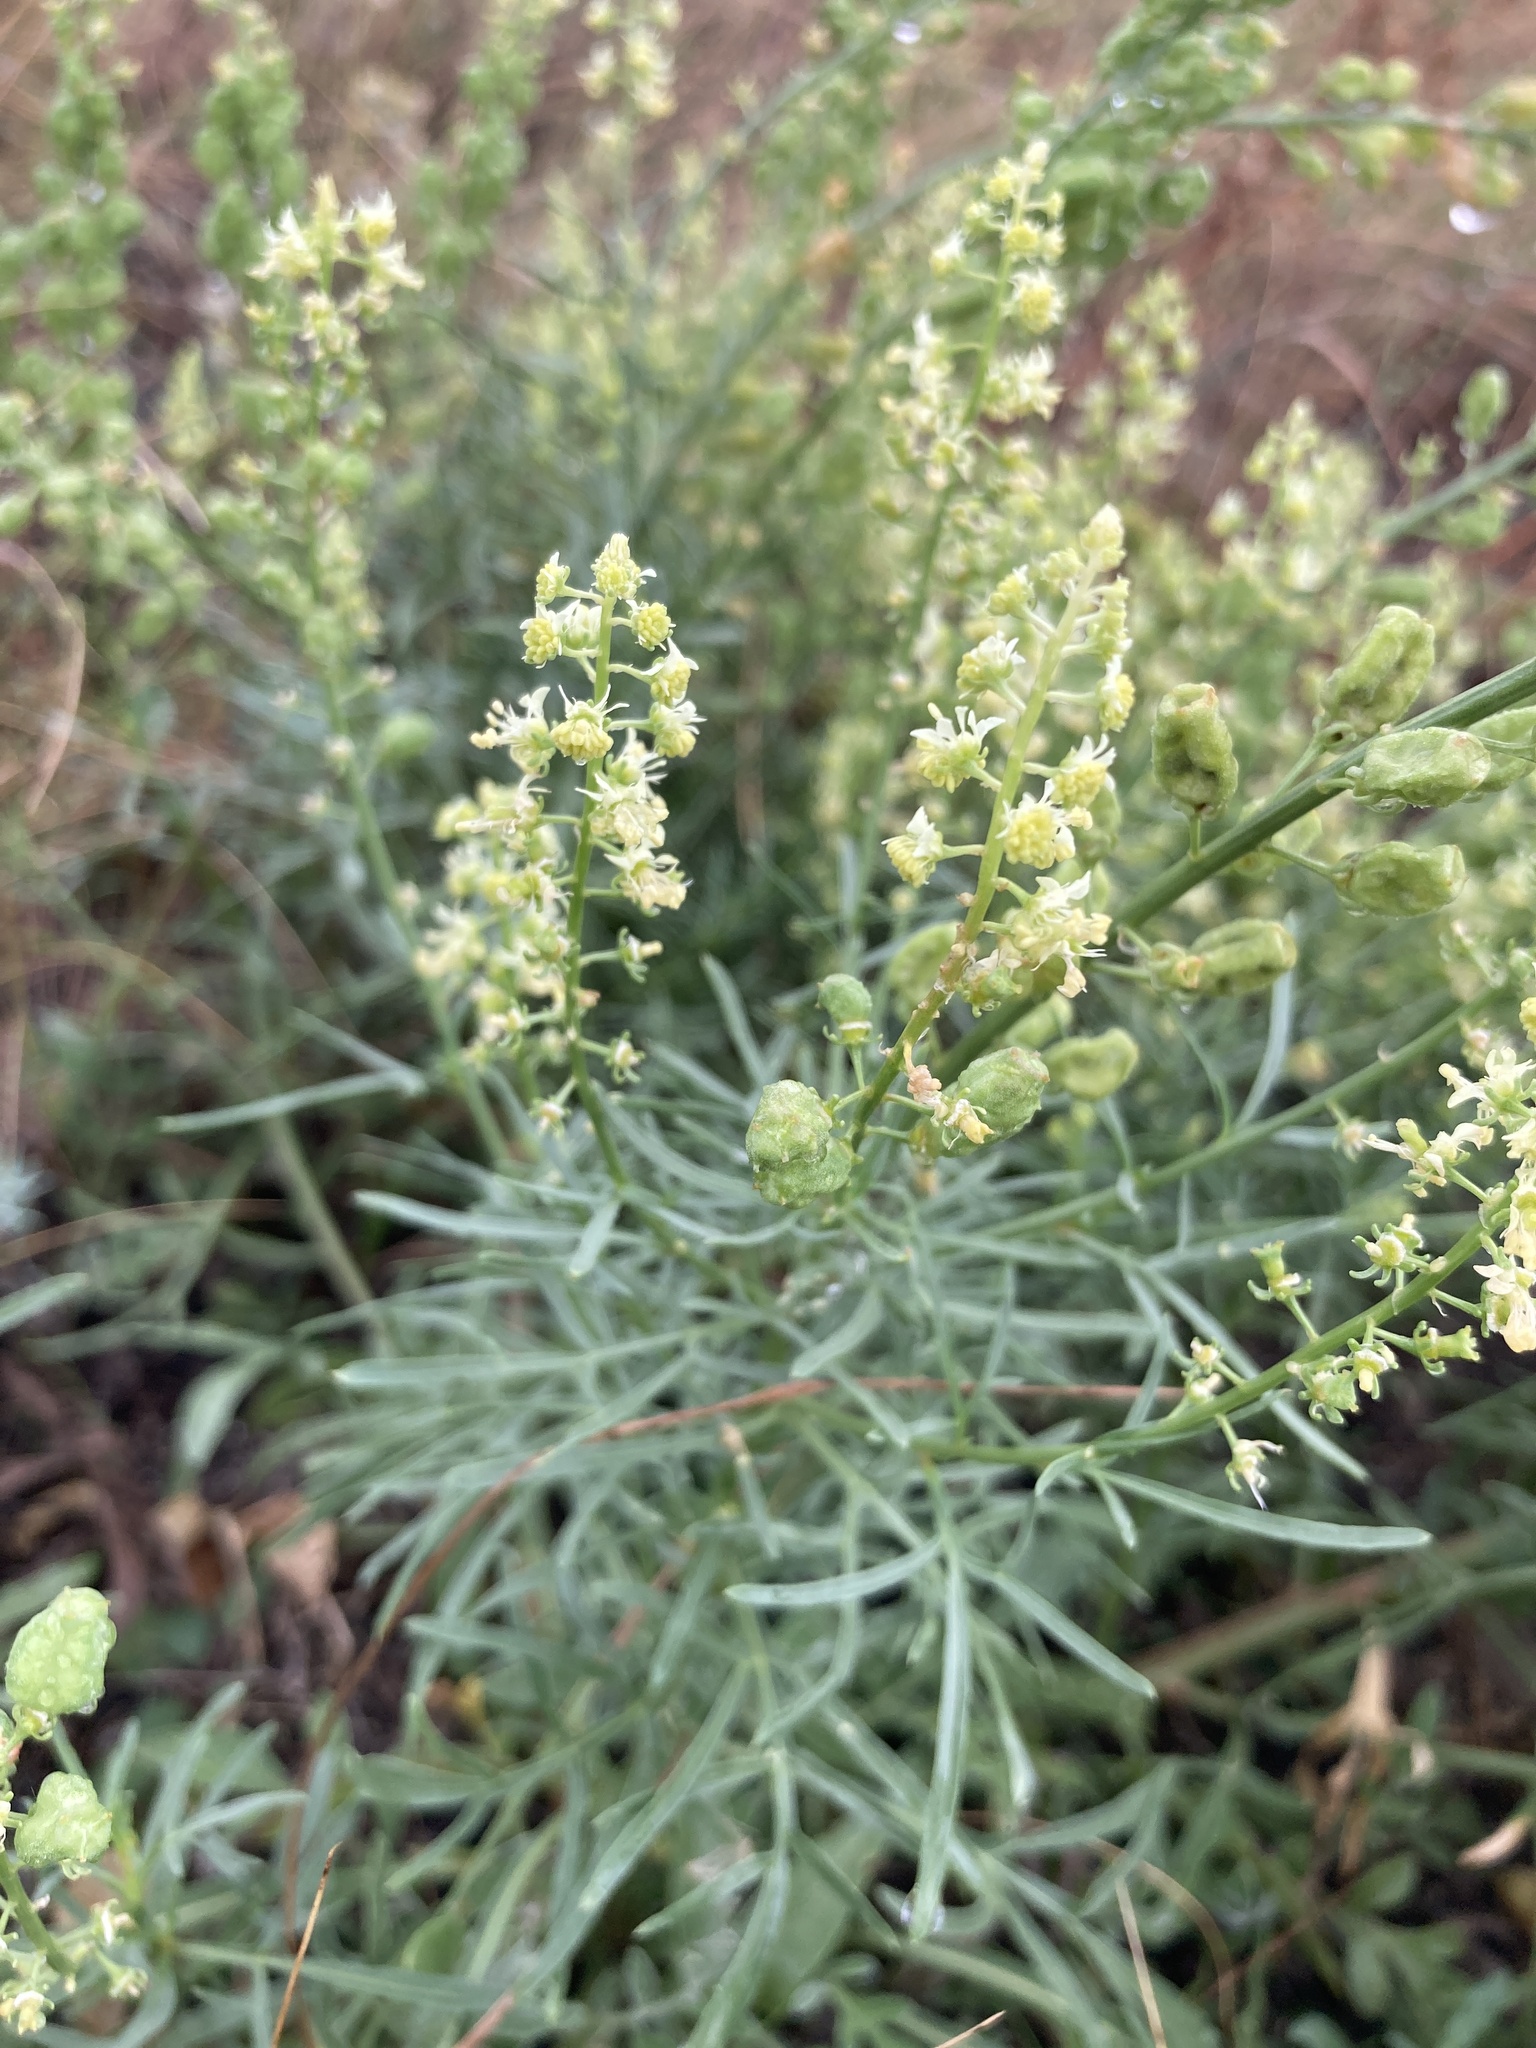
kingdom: Plantae
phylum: Tracheophyta
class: Magnoliopsida
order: Brassicales
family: Resedaceae
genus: Reseda
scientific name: Reseda lutea
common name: Wild mignonette
